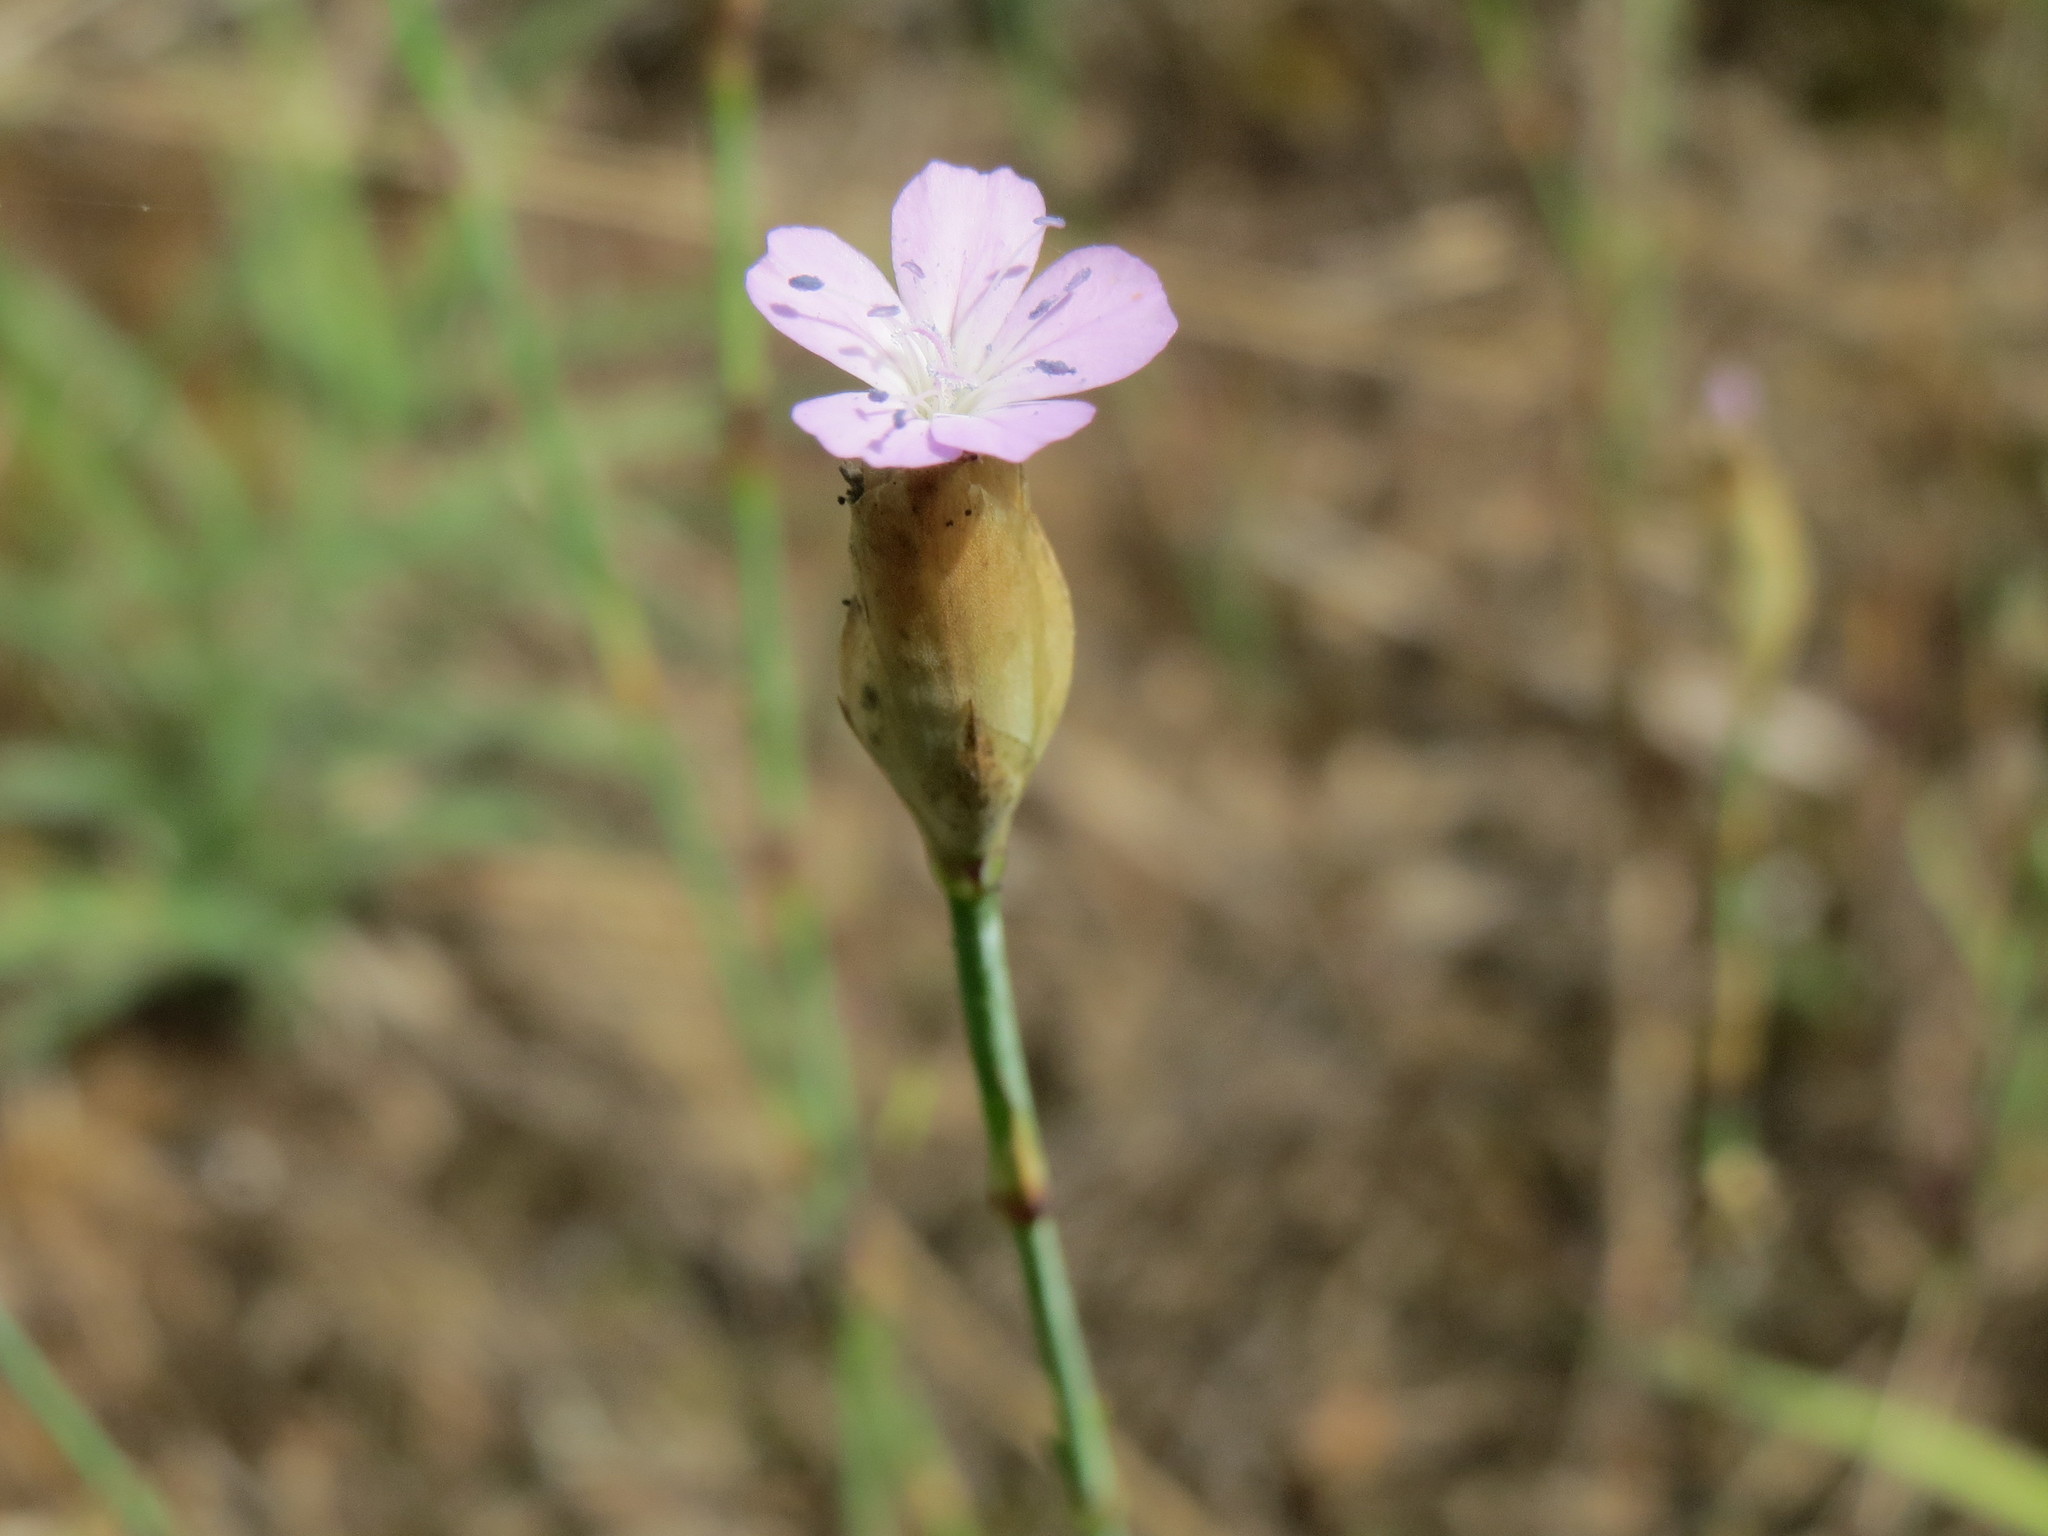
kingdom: Plantae
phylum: Tracheophyta
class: Magnoliopsida
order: Caryophyllales
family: Caryophyllaceae
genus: Petrorhagia
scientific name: Petrorhagia prolifera
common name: Proliferous pink
